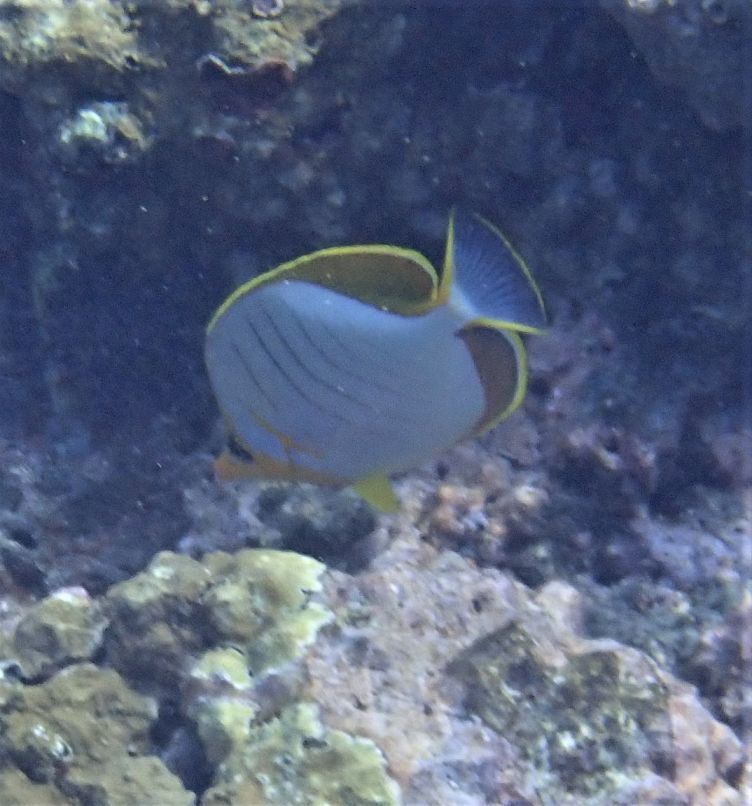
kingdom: Animalia
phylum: Chordata
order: Perciformes
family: Chaetodontidae
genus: Chaetodon
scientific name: Chaetodon xanthocephalus
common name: Yellowhead butterflyfish
